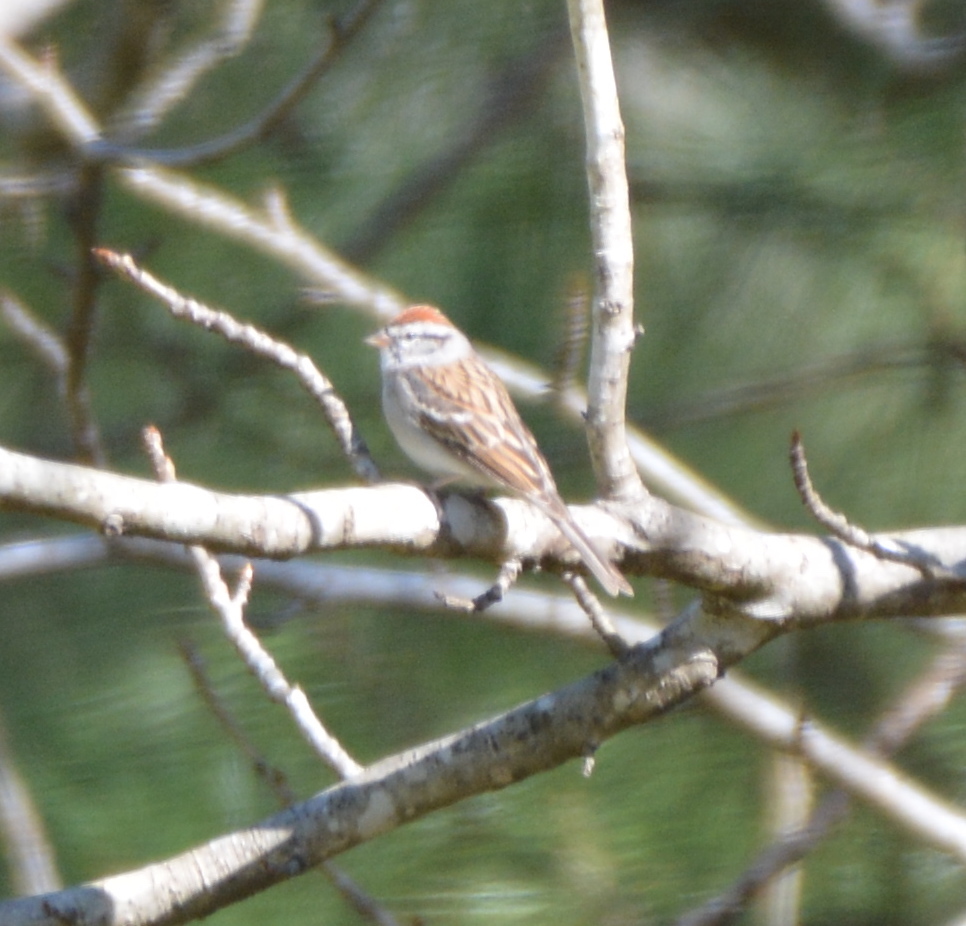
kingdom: Animalia
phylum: Chordata
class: Aves
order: Passeriformes
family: Passerellidae
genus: Spizella
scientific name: Spizella passerina
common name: Chipping sparrow
